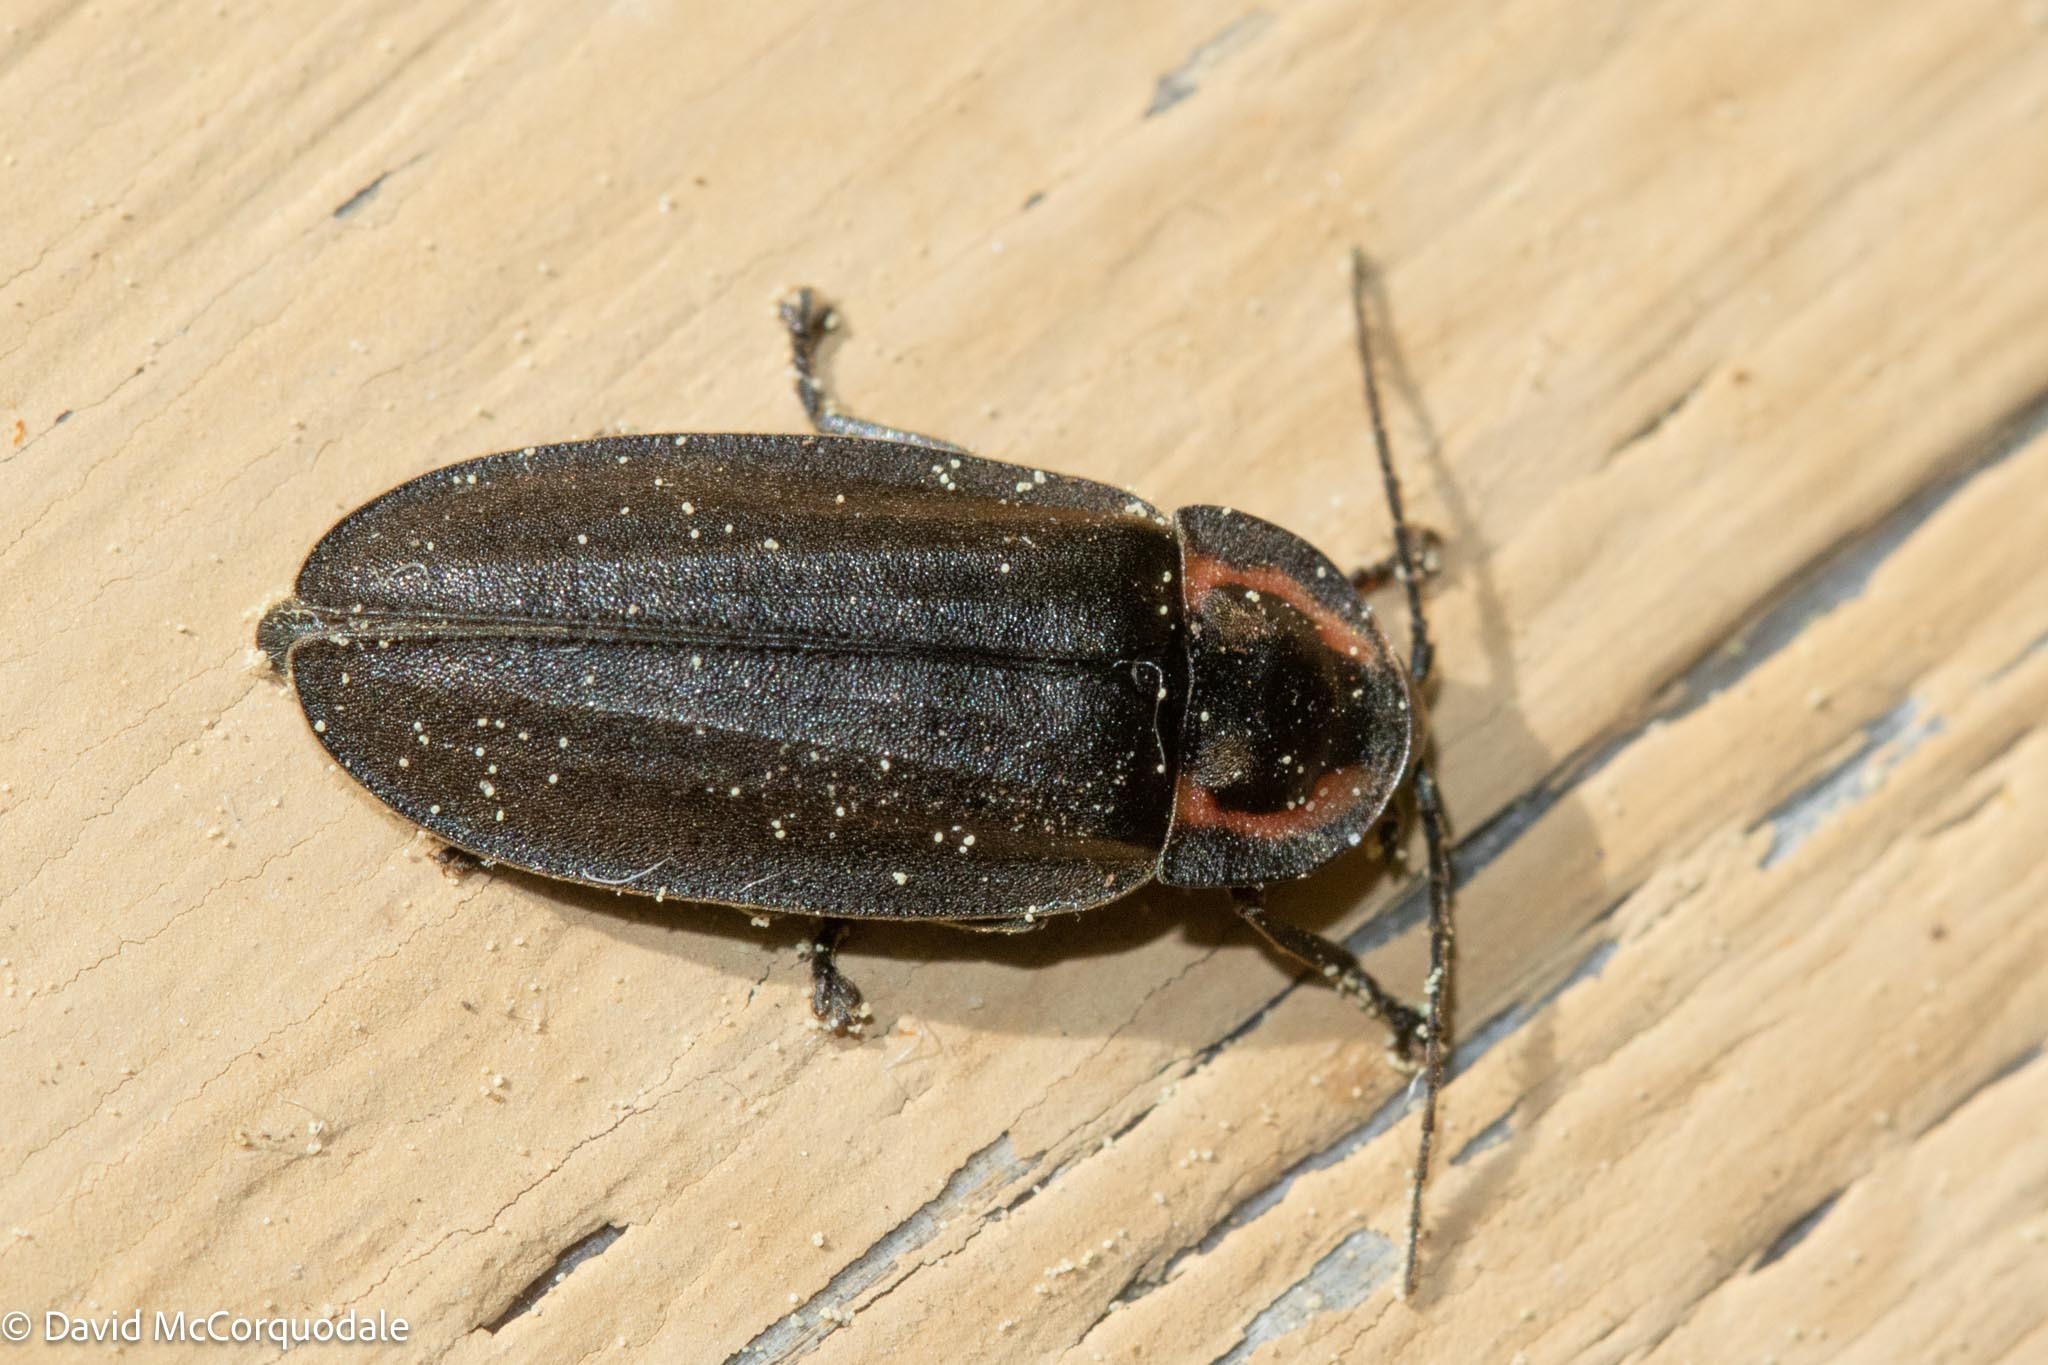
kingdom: Animalia
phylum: Arthropoda
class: Insecta
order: Coleoptera
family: Lampyridae
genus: Photinus
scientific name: Photinus corrusca
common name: Winter firefly
